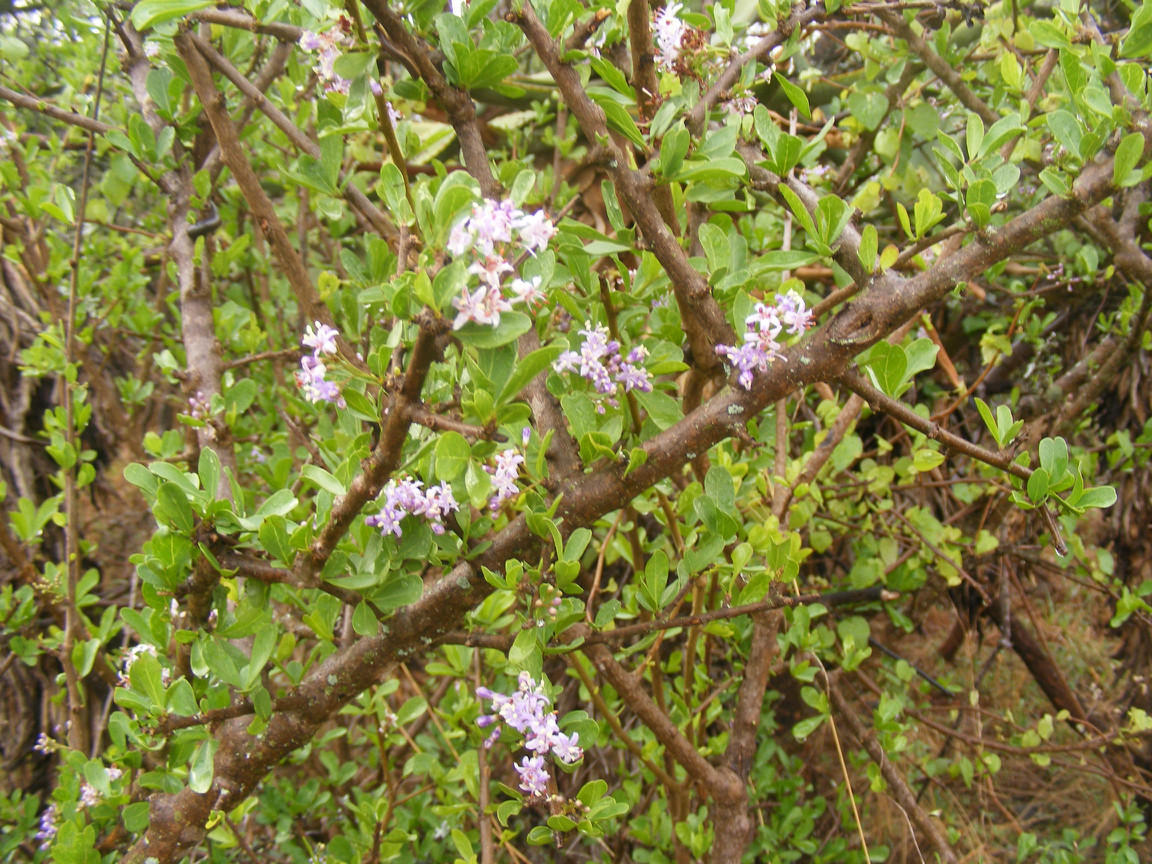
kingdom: Plantae
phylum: Tracheophyta
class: Magnoliopsida
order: Boraginales
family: Ehretiaceae
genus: Ehretia
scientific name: Ehretia rigida
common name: Cape lilac
